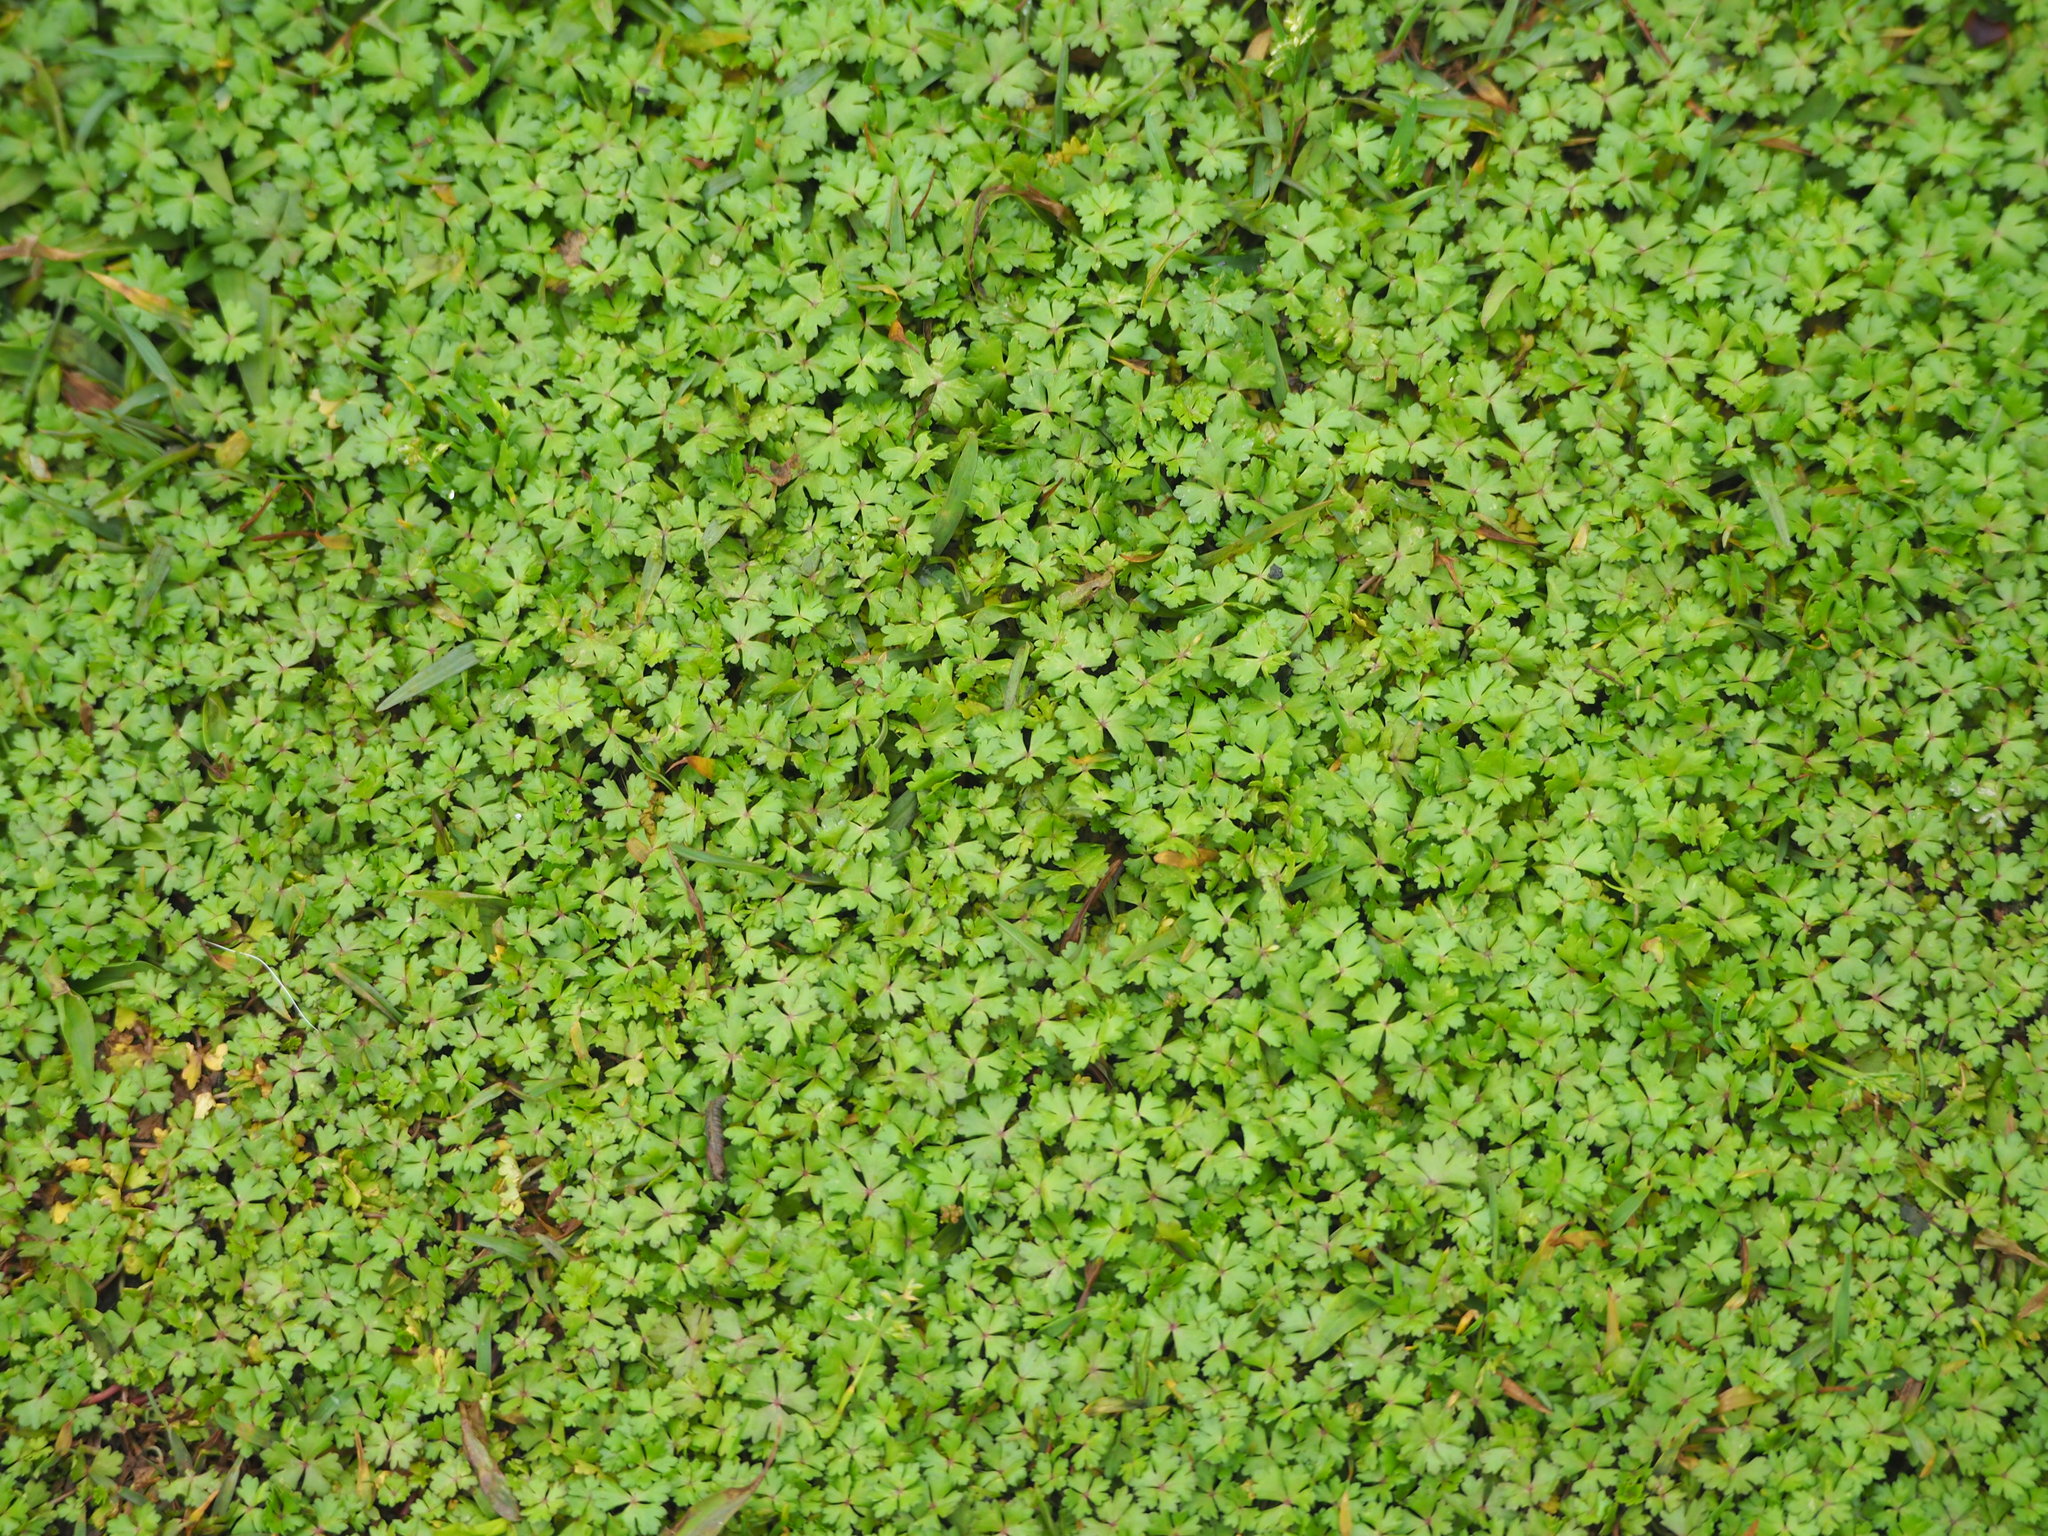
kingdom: Plantae
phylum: Tracheophyta
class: Magnoliopsida
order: Apiales
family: Araliaceae
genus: Hydrocotyle
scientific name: Hydrocotyle batrachium
